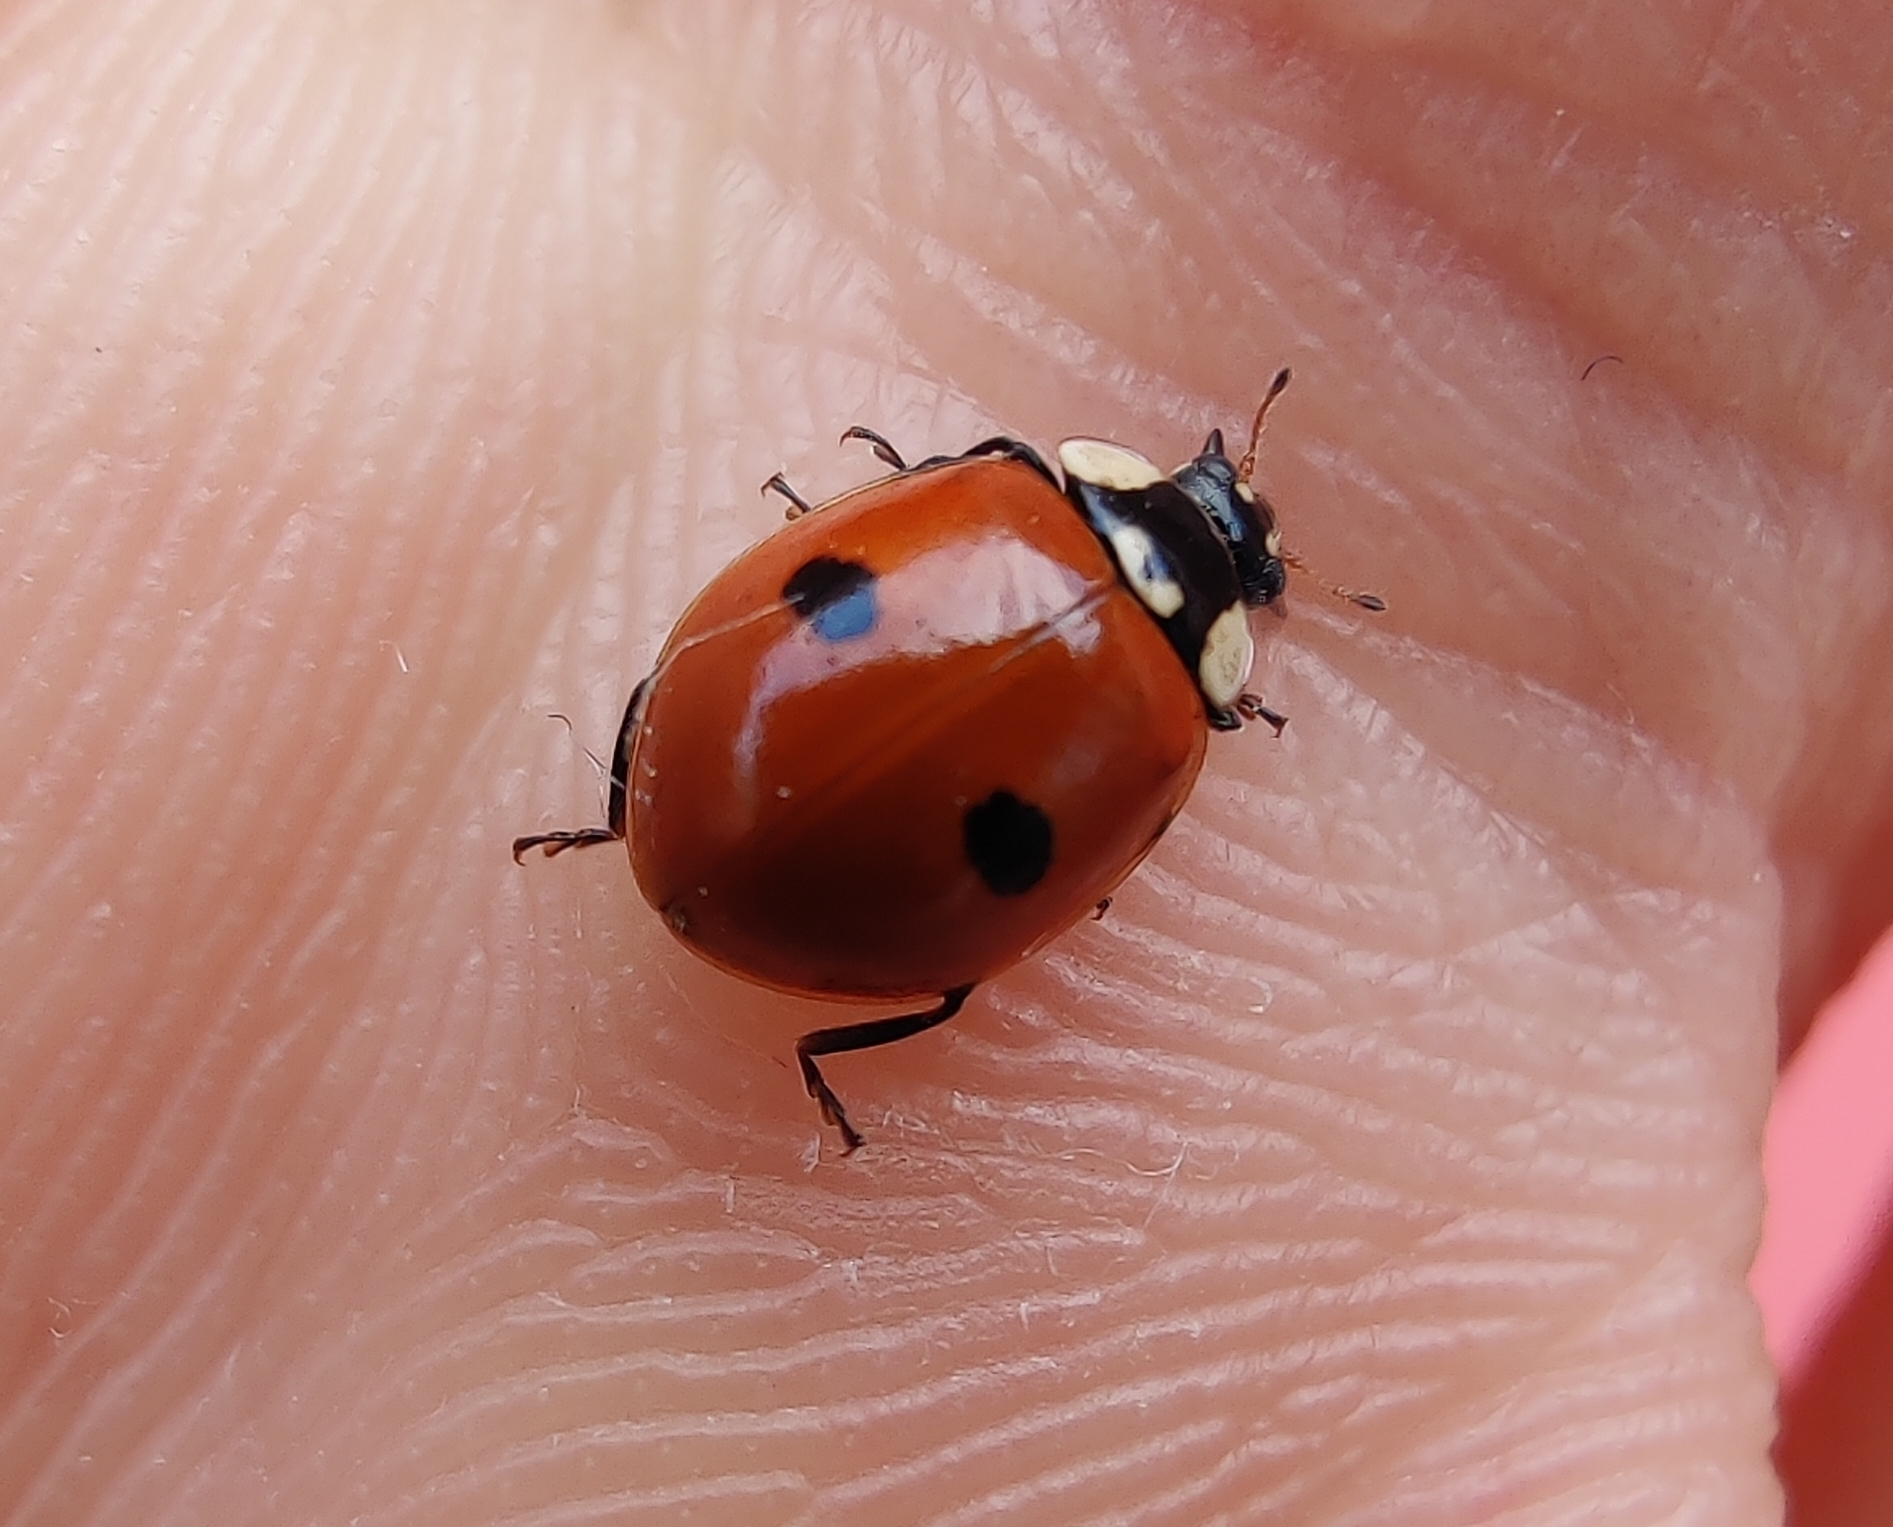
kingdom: Animalia
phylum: Arthropoda
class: Insecta
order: Coleoptera
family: Coccinellidae
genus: Adalia
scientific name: Adalia bipunctata
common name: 2-spot ladybird
